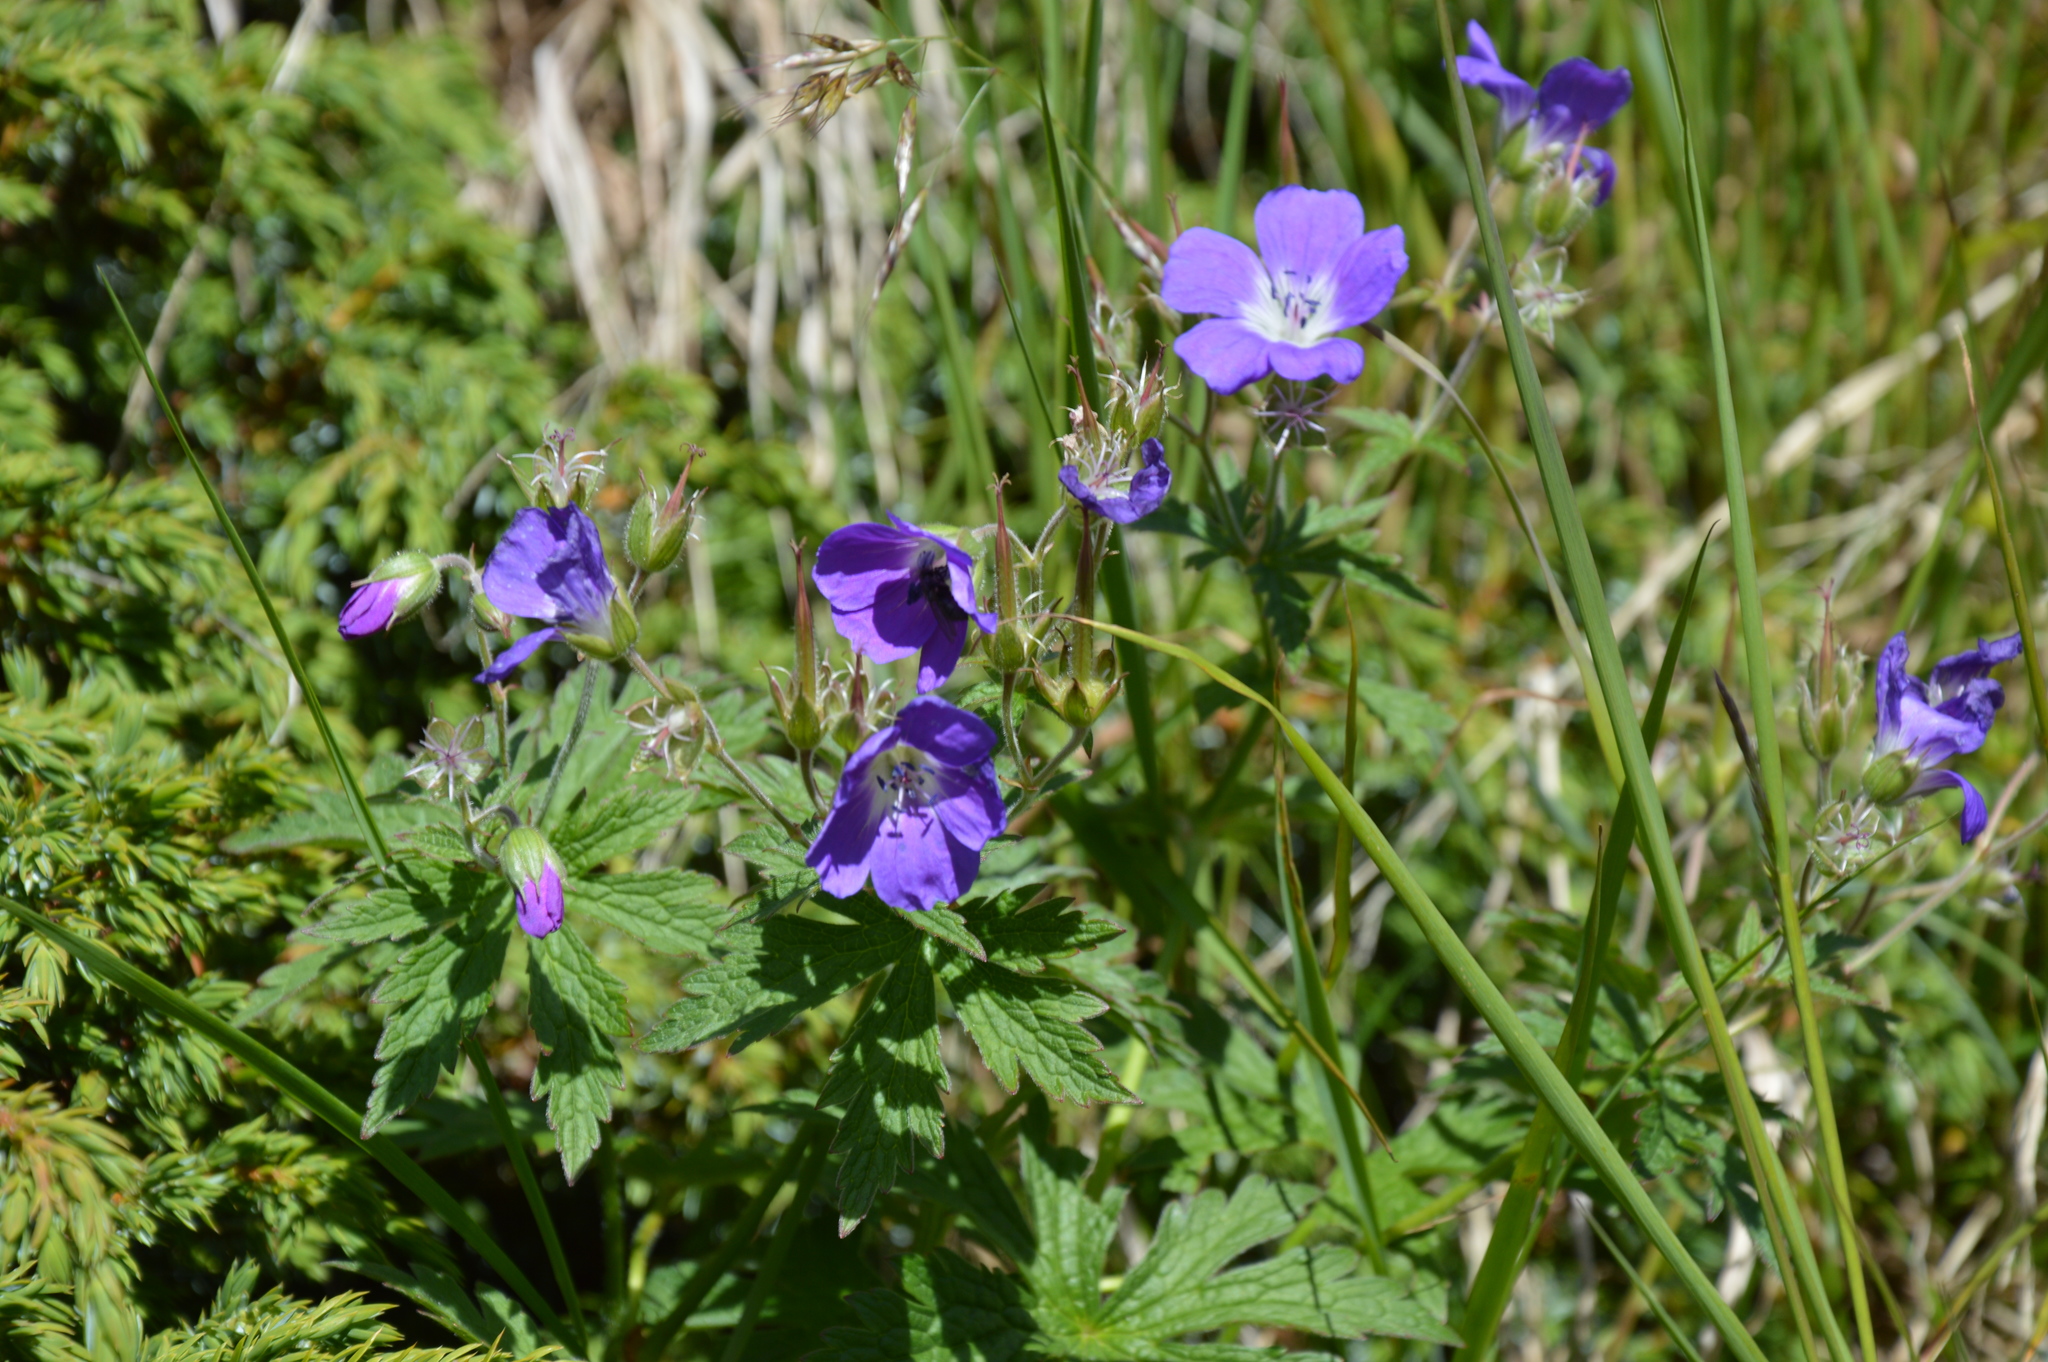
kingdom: Plantae
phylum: Tracheophyta
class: Magnoliopsida
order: Geraniales
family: Geraniaceae
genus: Geranium
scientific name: Geranium sylvaticum
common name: Wood crane's-bill
